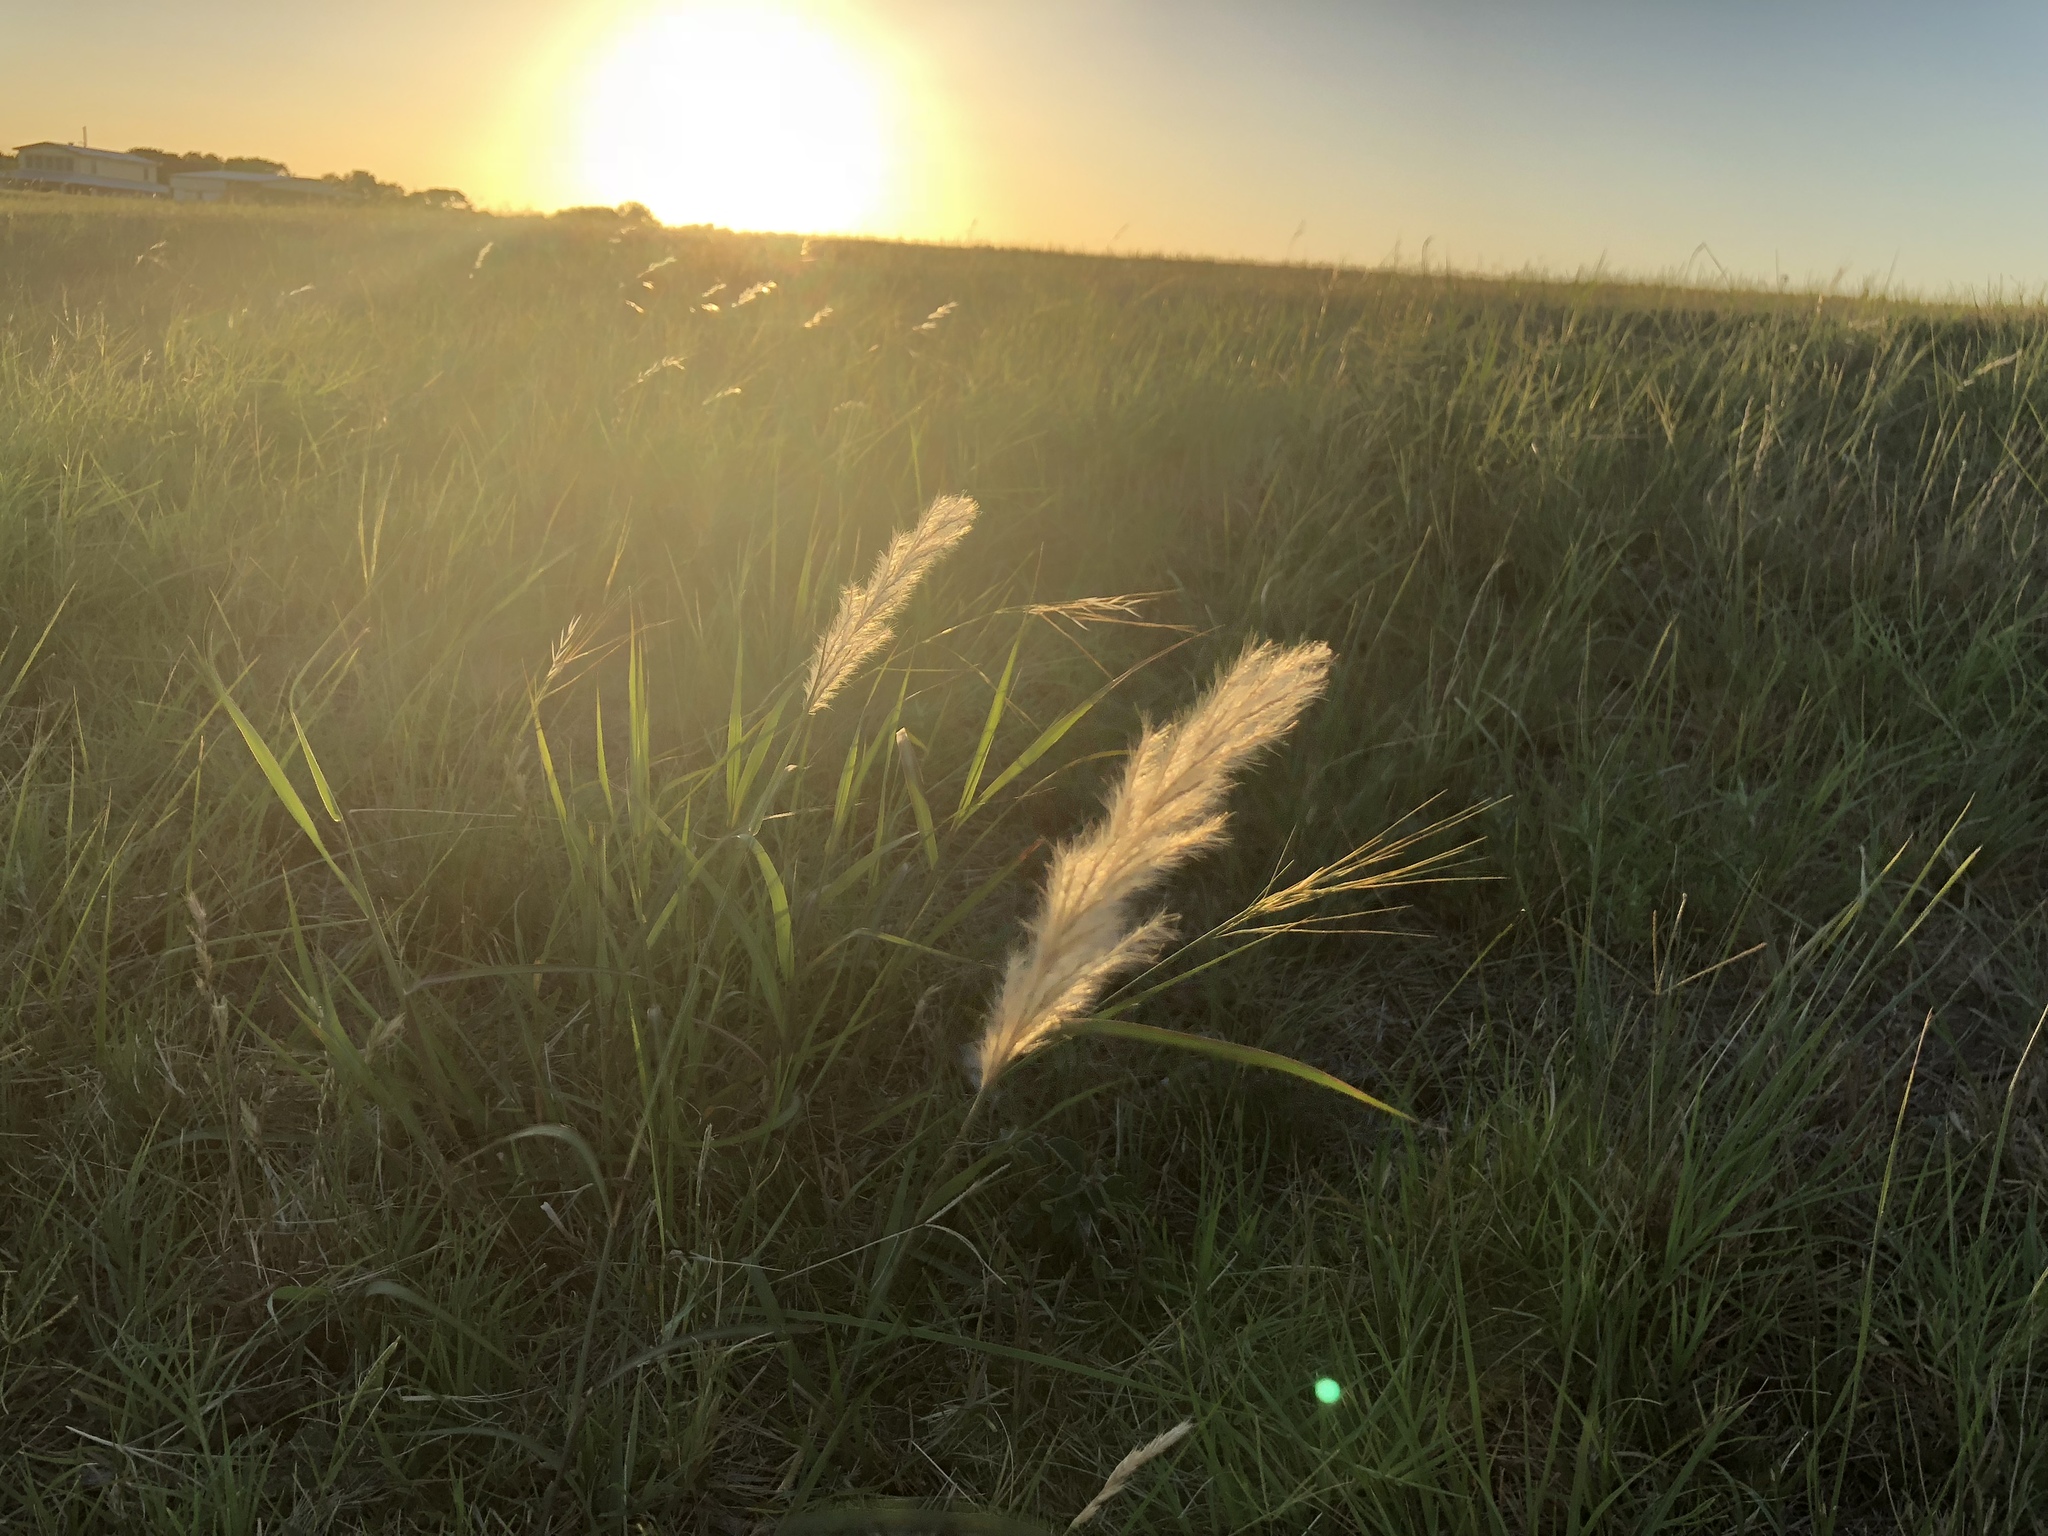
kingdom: Plantae
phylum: Tracheophyta
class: Liliopsida
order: Poales
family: Poaceae
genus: Bothriochloa
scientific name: Bothriochloa torreyana
